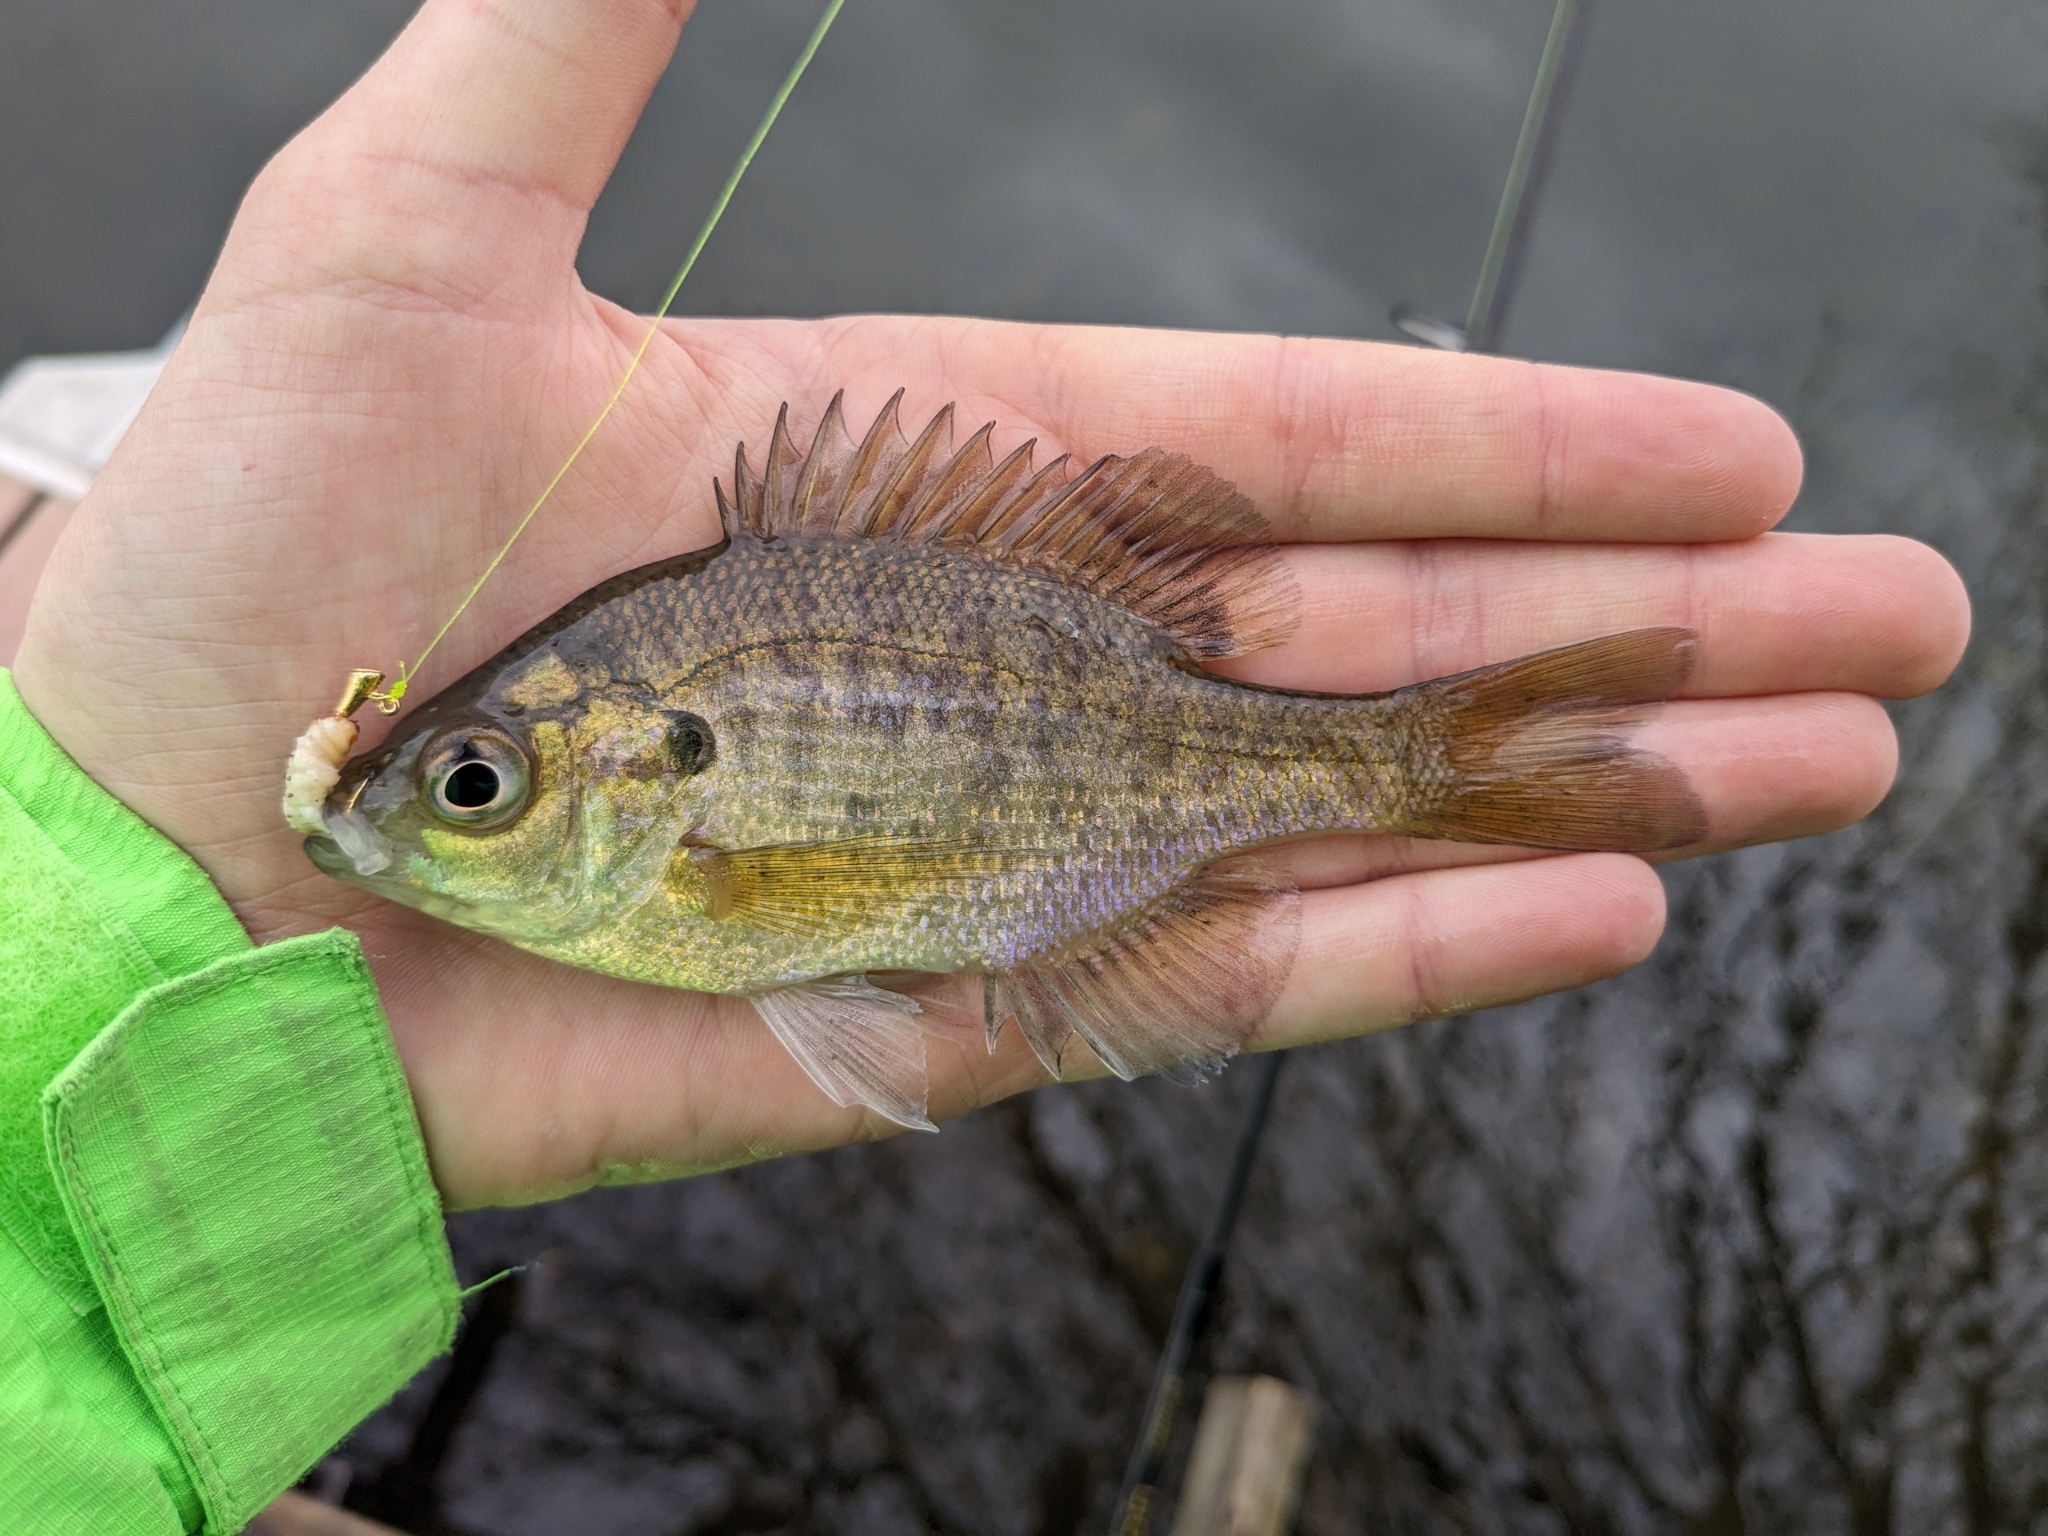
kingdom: Animalia
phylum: Chordata
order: Perciformes
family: Centrarchidae
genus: Lepomis
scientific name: Lepomis macrochirus
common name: Bluegill
